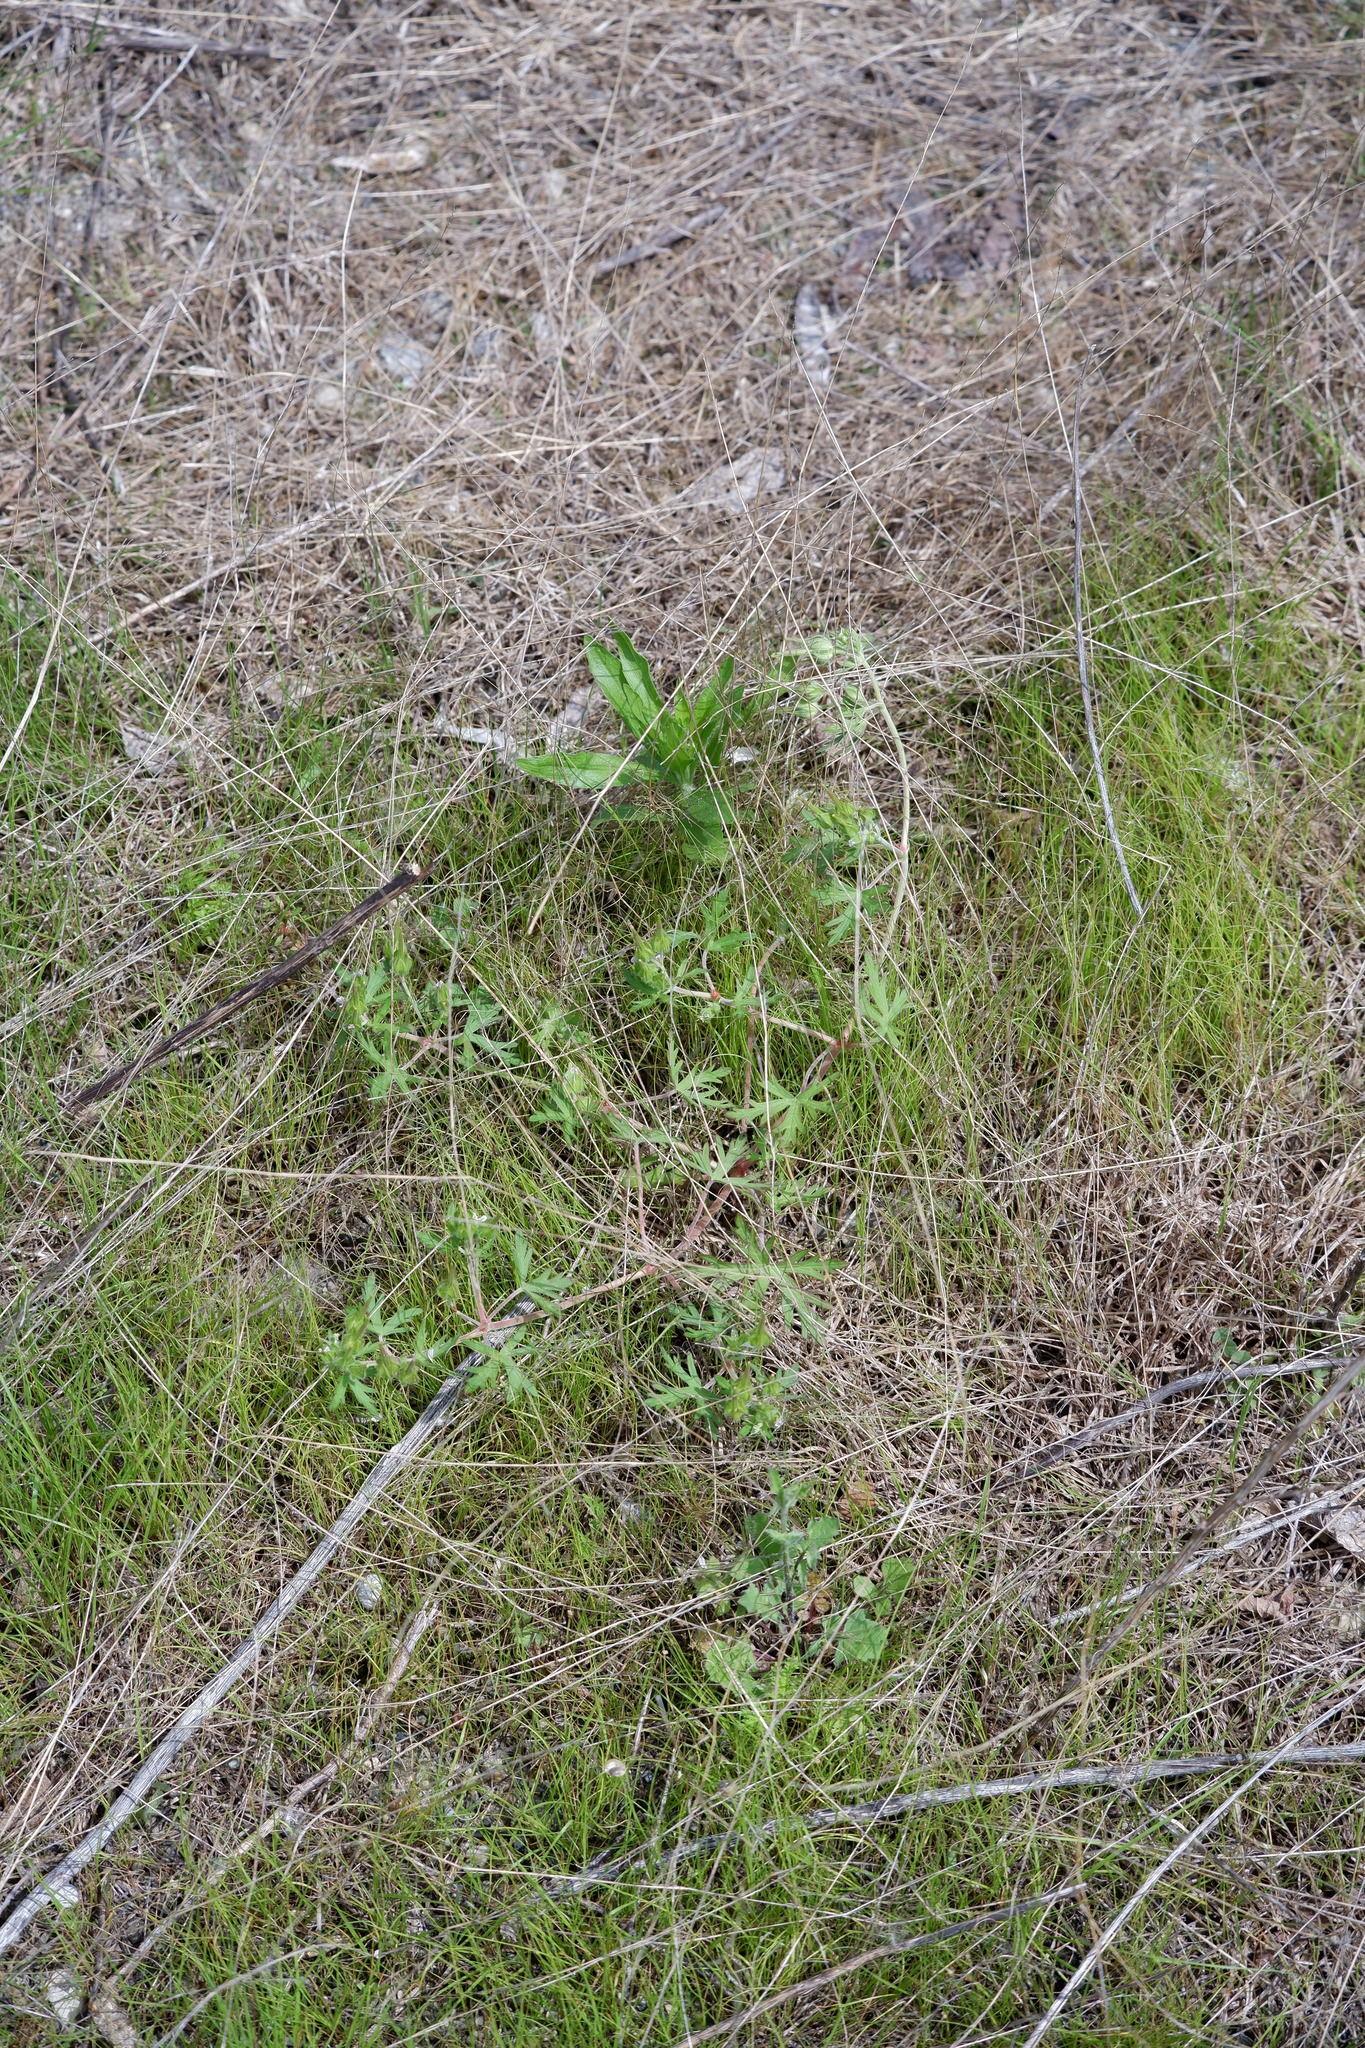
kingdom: Plantae
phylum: Tracheophyta
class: Magnoliopsida
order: Geraniales
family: Geraniaceae
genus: Geranium
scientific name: Geranium carolinianum
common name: Carolina crane's-bill
